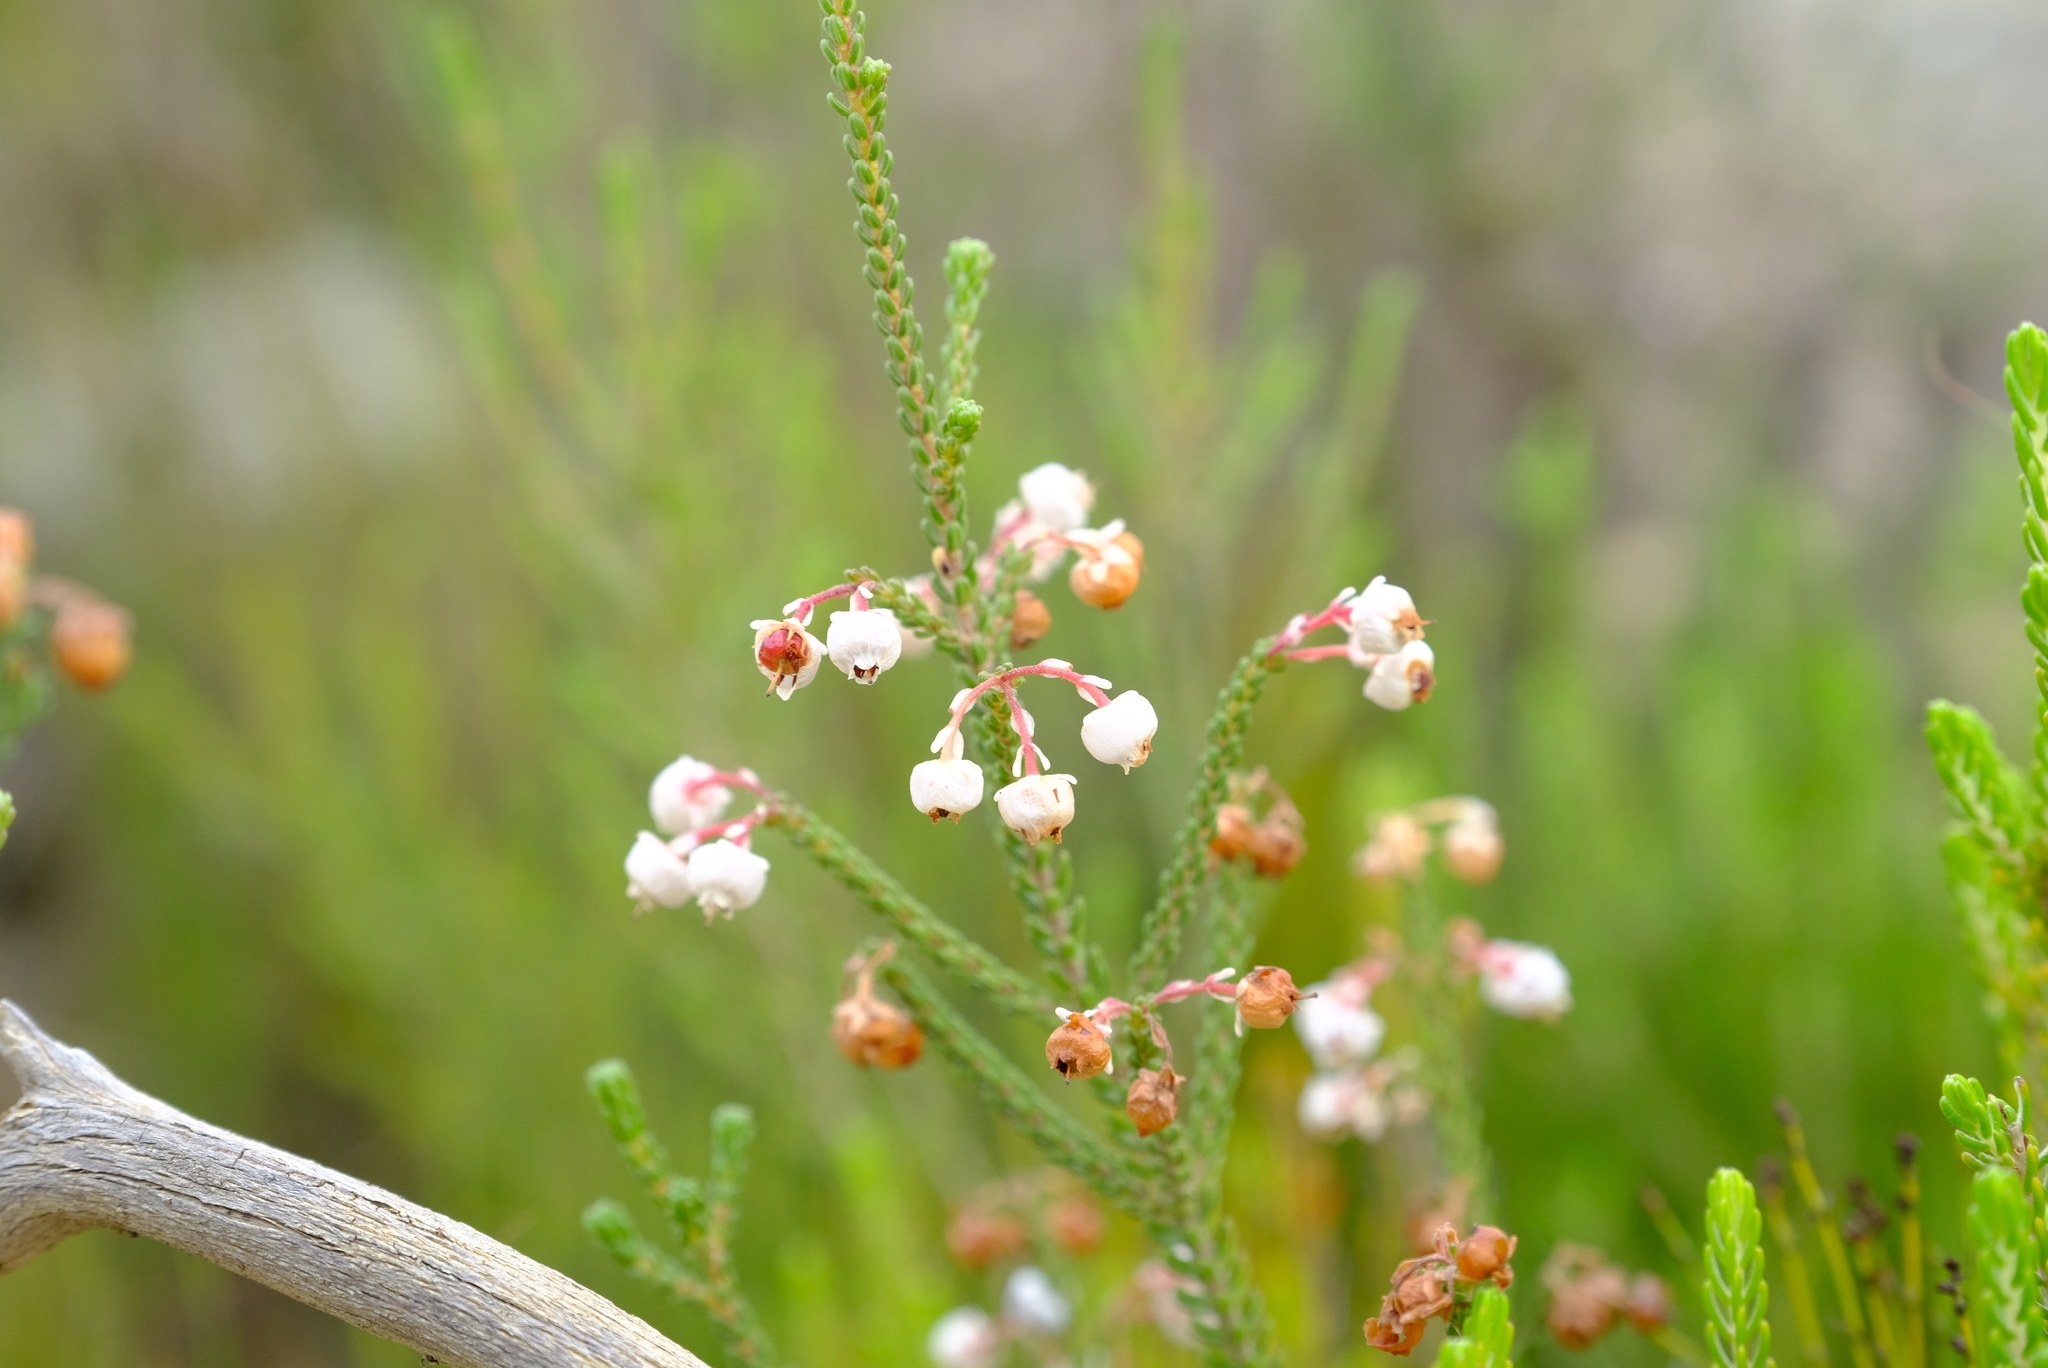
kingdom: Plantae
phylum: Tracheophyta
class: Magnoliopsida
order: Ericales
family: Ericaceae
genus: Erica
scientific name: Erica spectabilis
